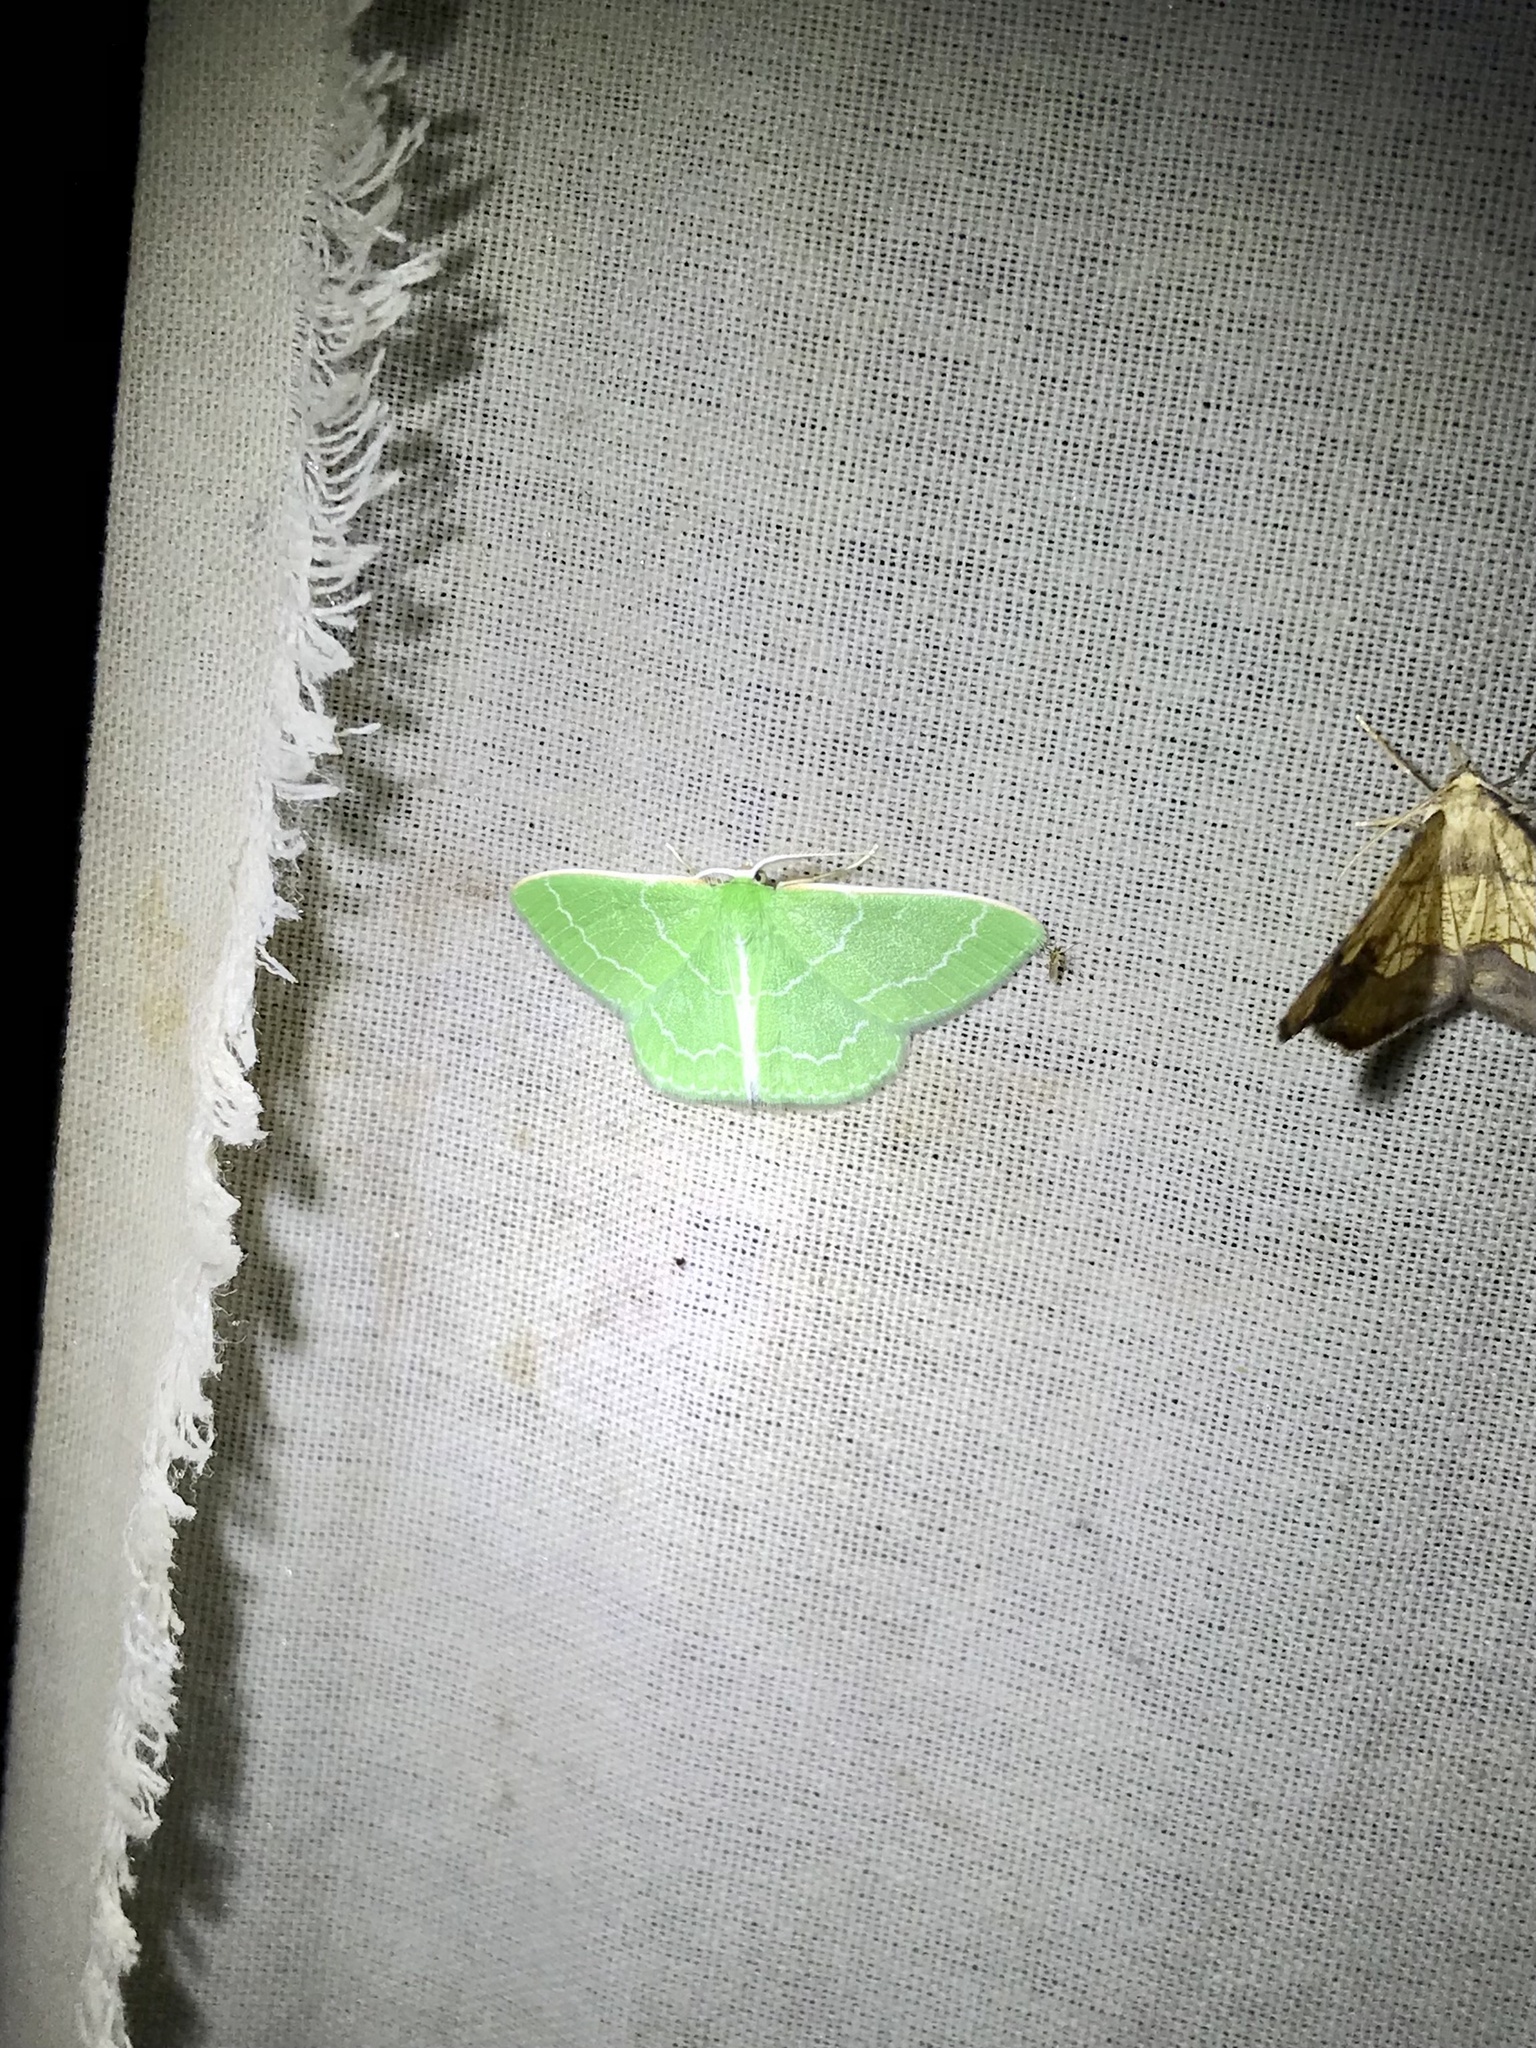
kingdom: Animalia
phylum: Arthropoda
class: Insecta
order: Lepidoptera
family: Geometridae
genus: Synchlora
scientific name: Synchlora aerata
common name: Wavy-lined emerald
